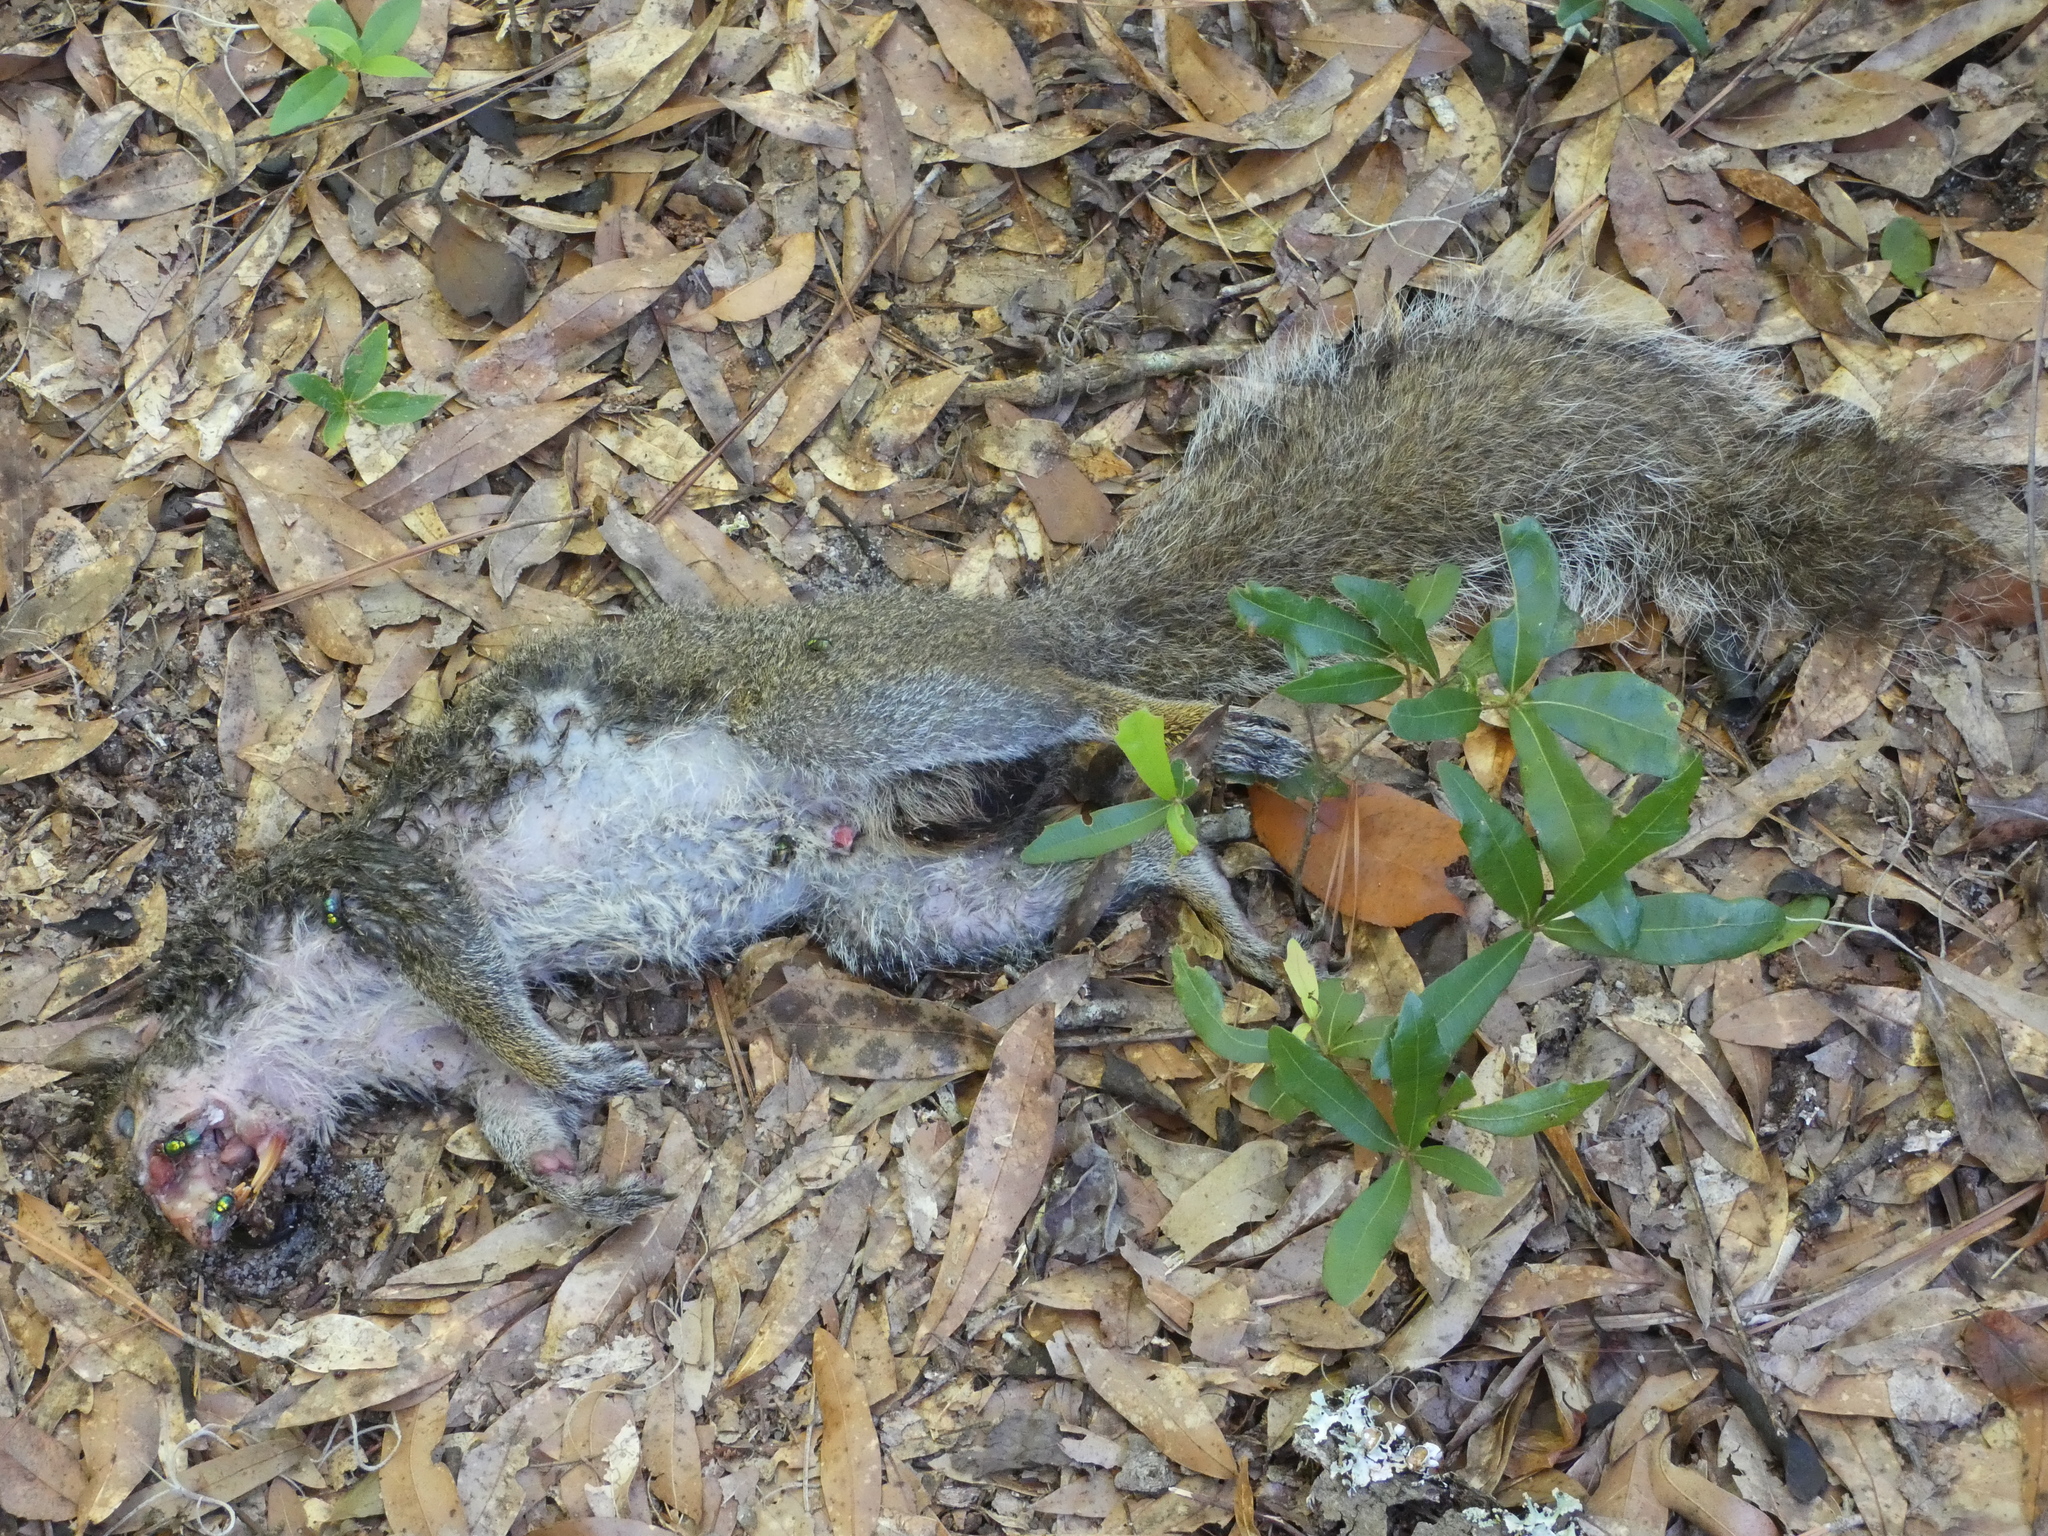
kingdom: Animalia
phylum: Chordata
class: Mammalia
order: Rodentia
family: Sciuridae
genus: Sciurus
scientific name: Sciurus carolinensis
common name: Eastern gray squirrel
